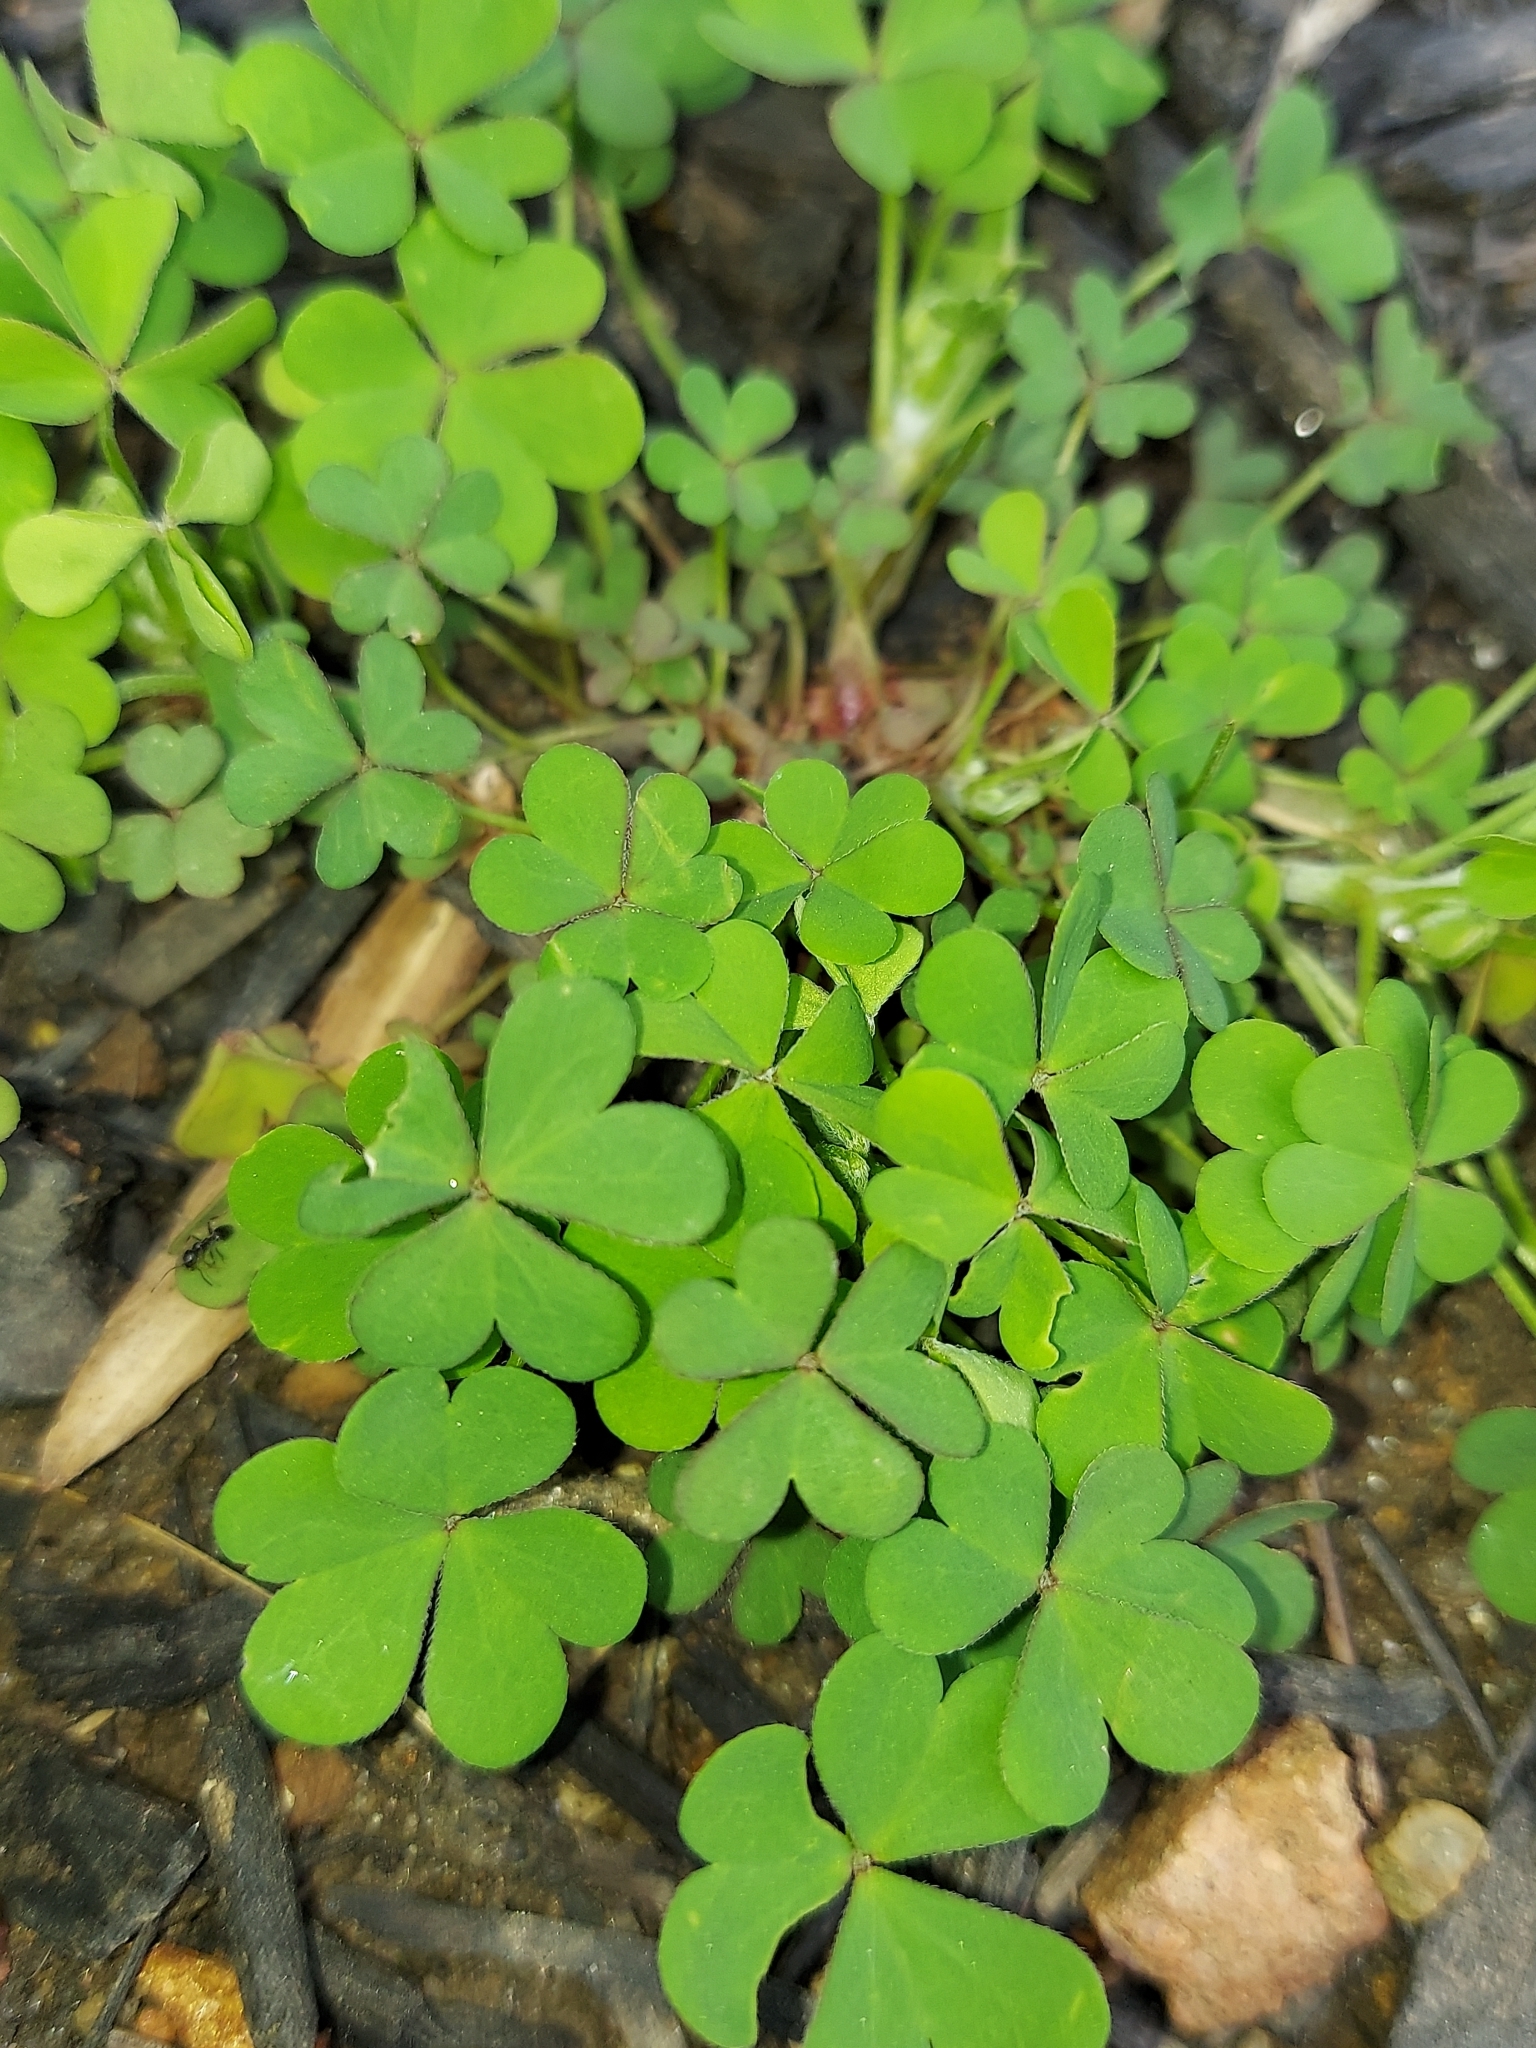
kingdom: Plantae
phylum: Tracheophyta
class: Magnoliopsida
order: Oxalidales
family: Oxalidaceae
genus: Oxalis
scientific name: Oxalis corniculata
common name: Procumbent yellow-sorrel
